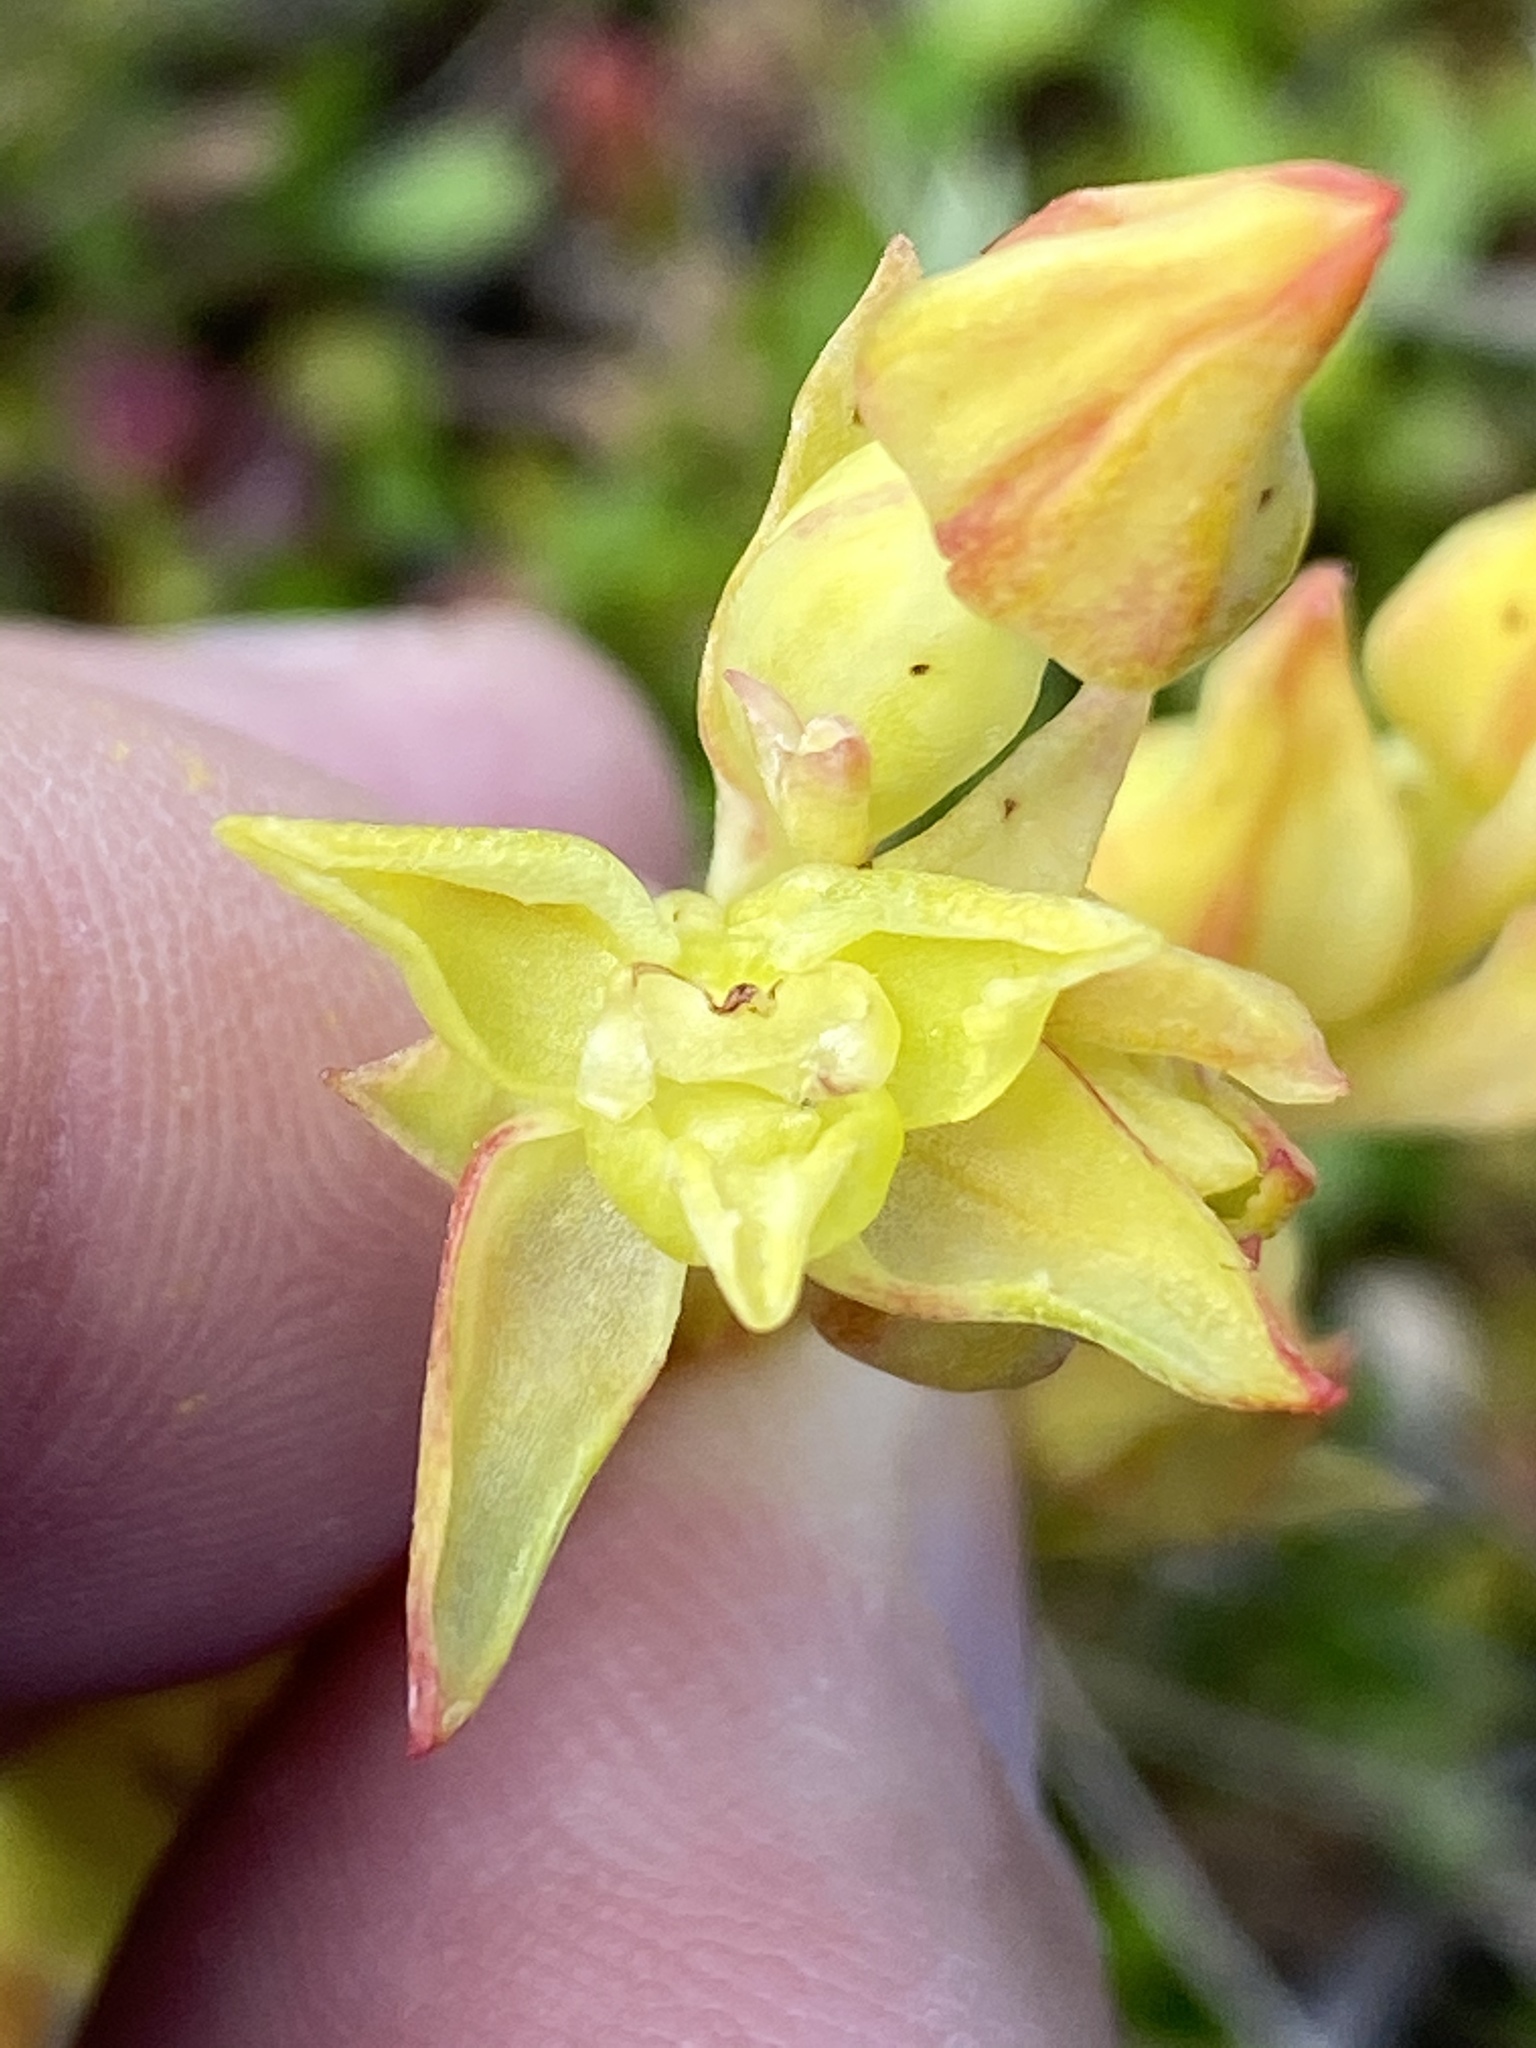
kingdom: Plantae
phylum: Tracheophyta
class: Liliopsida
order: Asparagales
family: Orchidaceae
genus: Pterygodium
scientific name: Pterygodium cleistogamum
